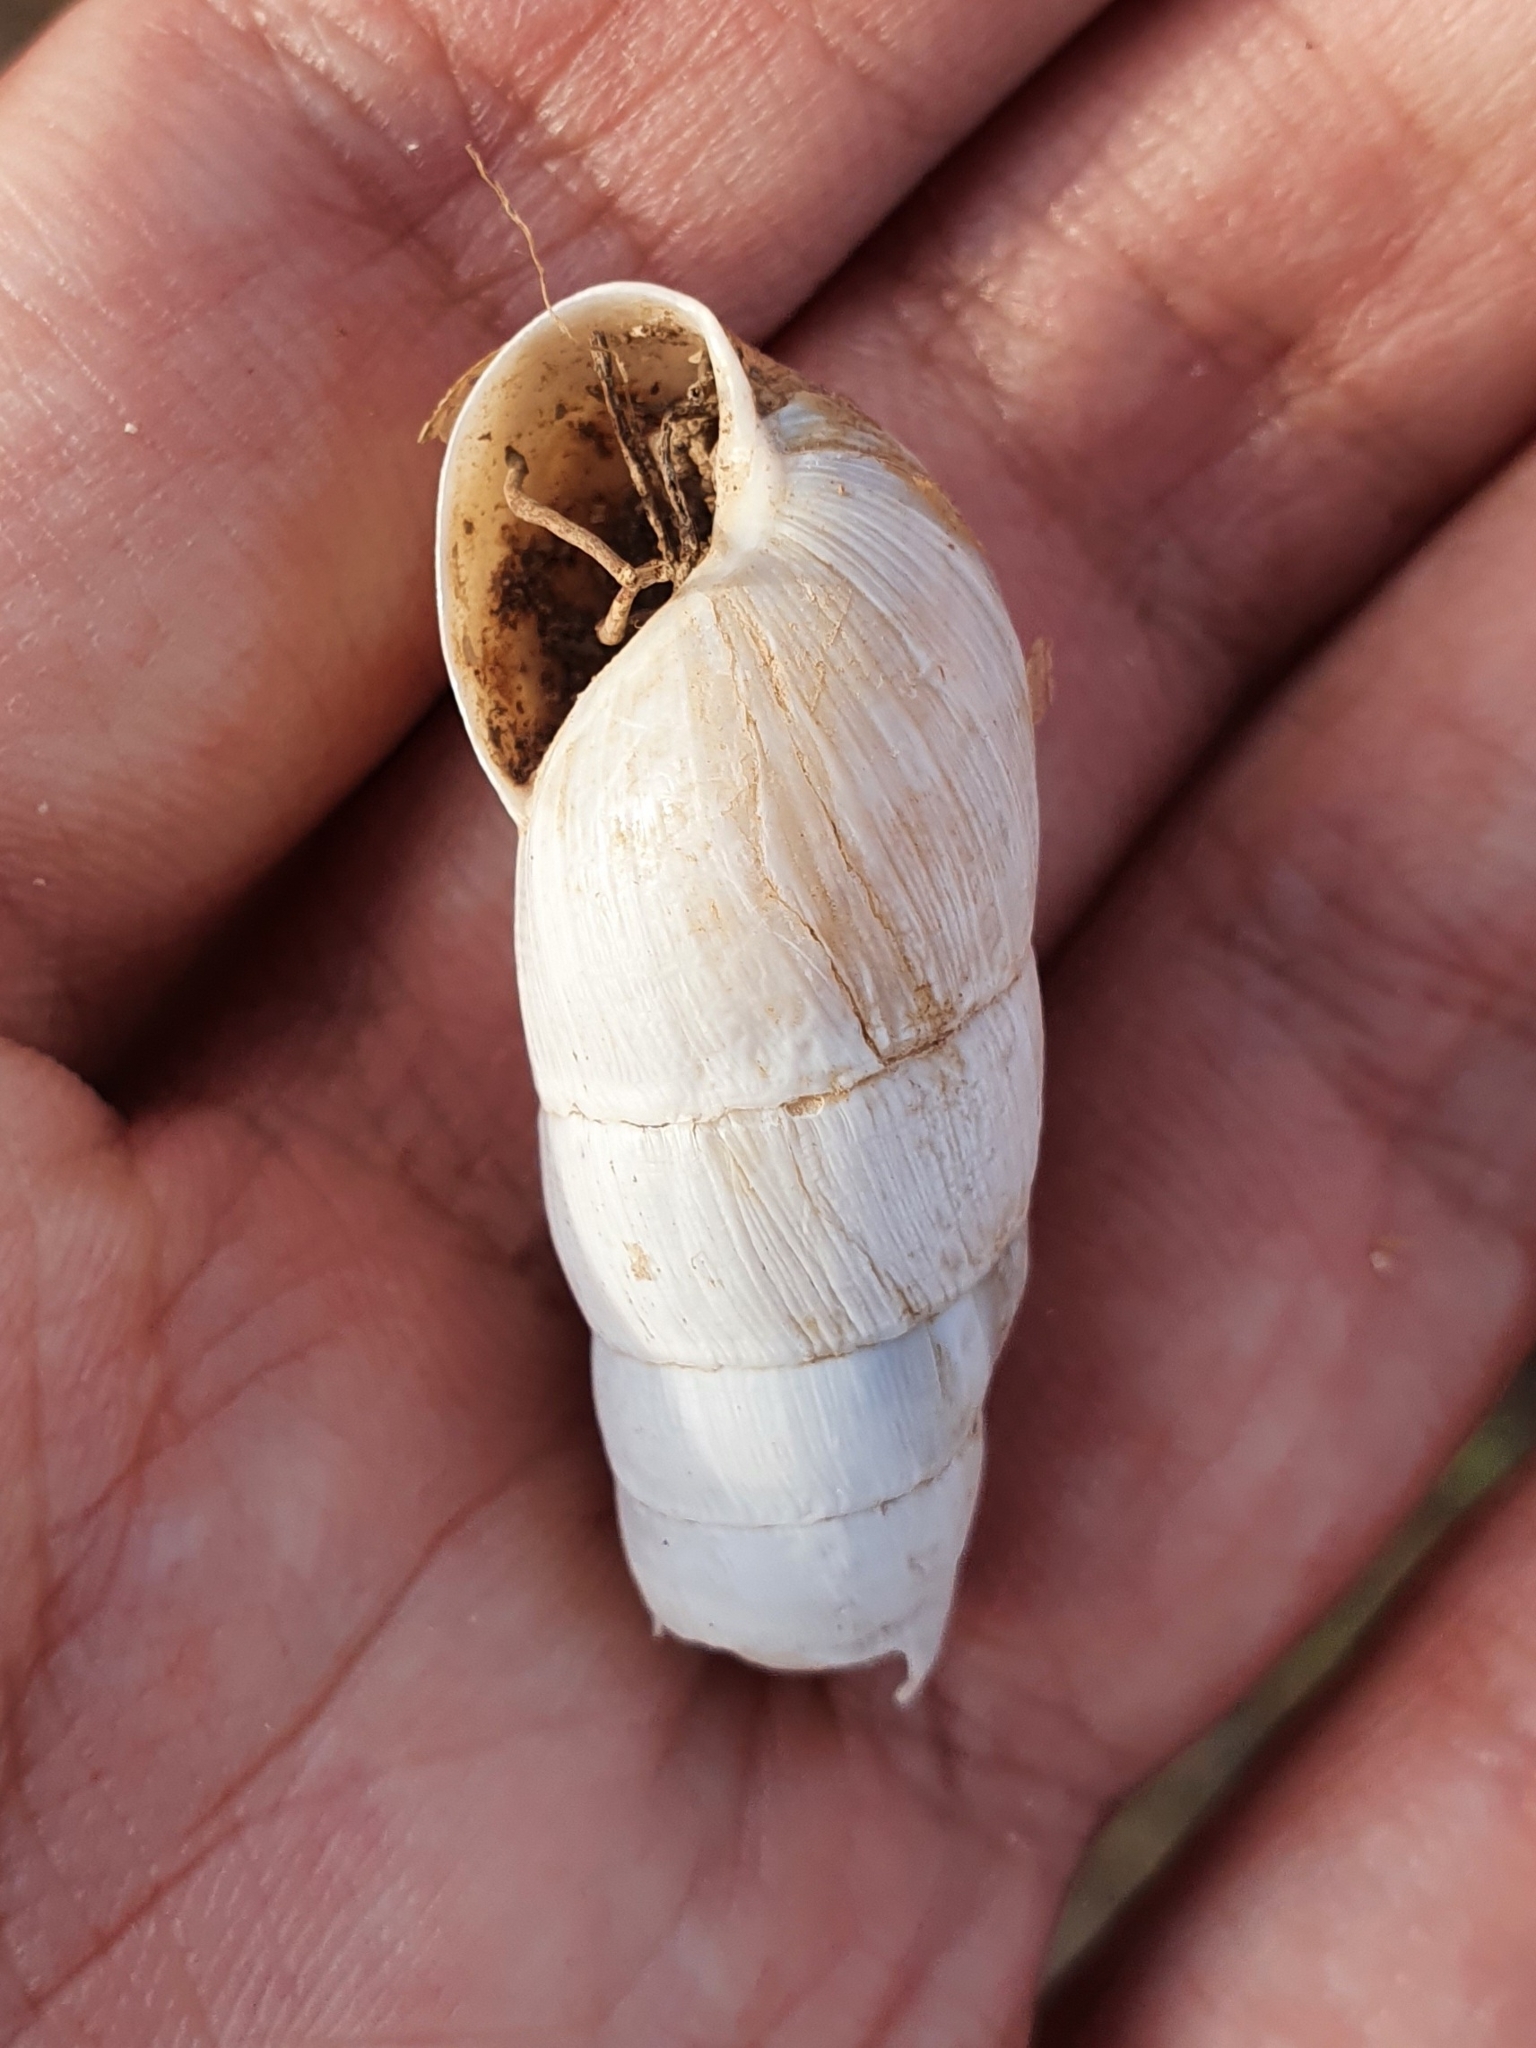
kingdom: Animalia
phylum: Mollusca
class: Gastropoda
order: Stylommatophora
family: Achatinidae
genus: Rumina
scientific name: Rumina decollata
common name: Decollate snail
